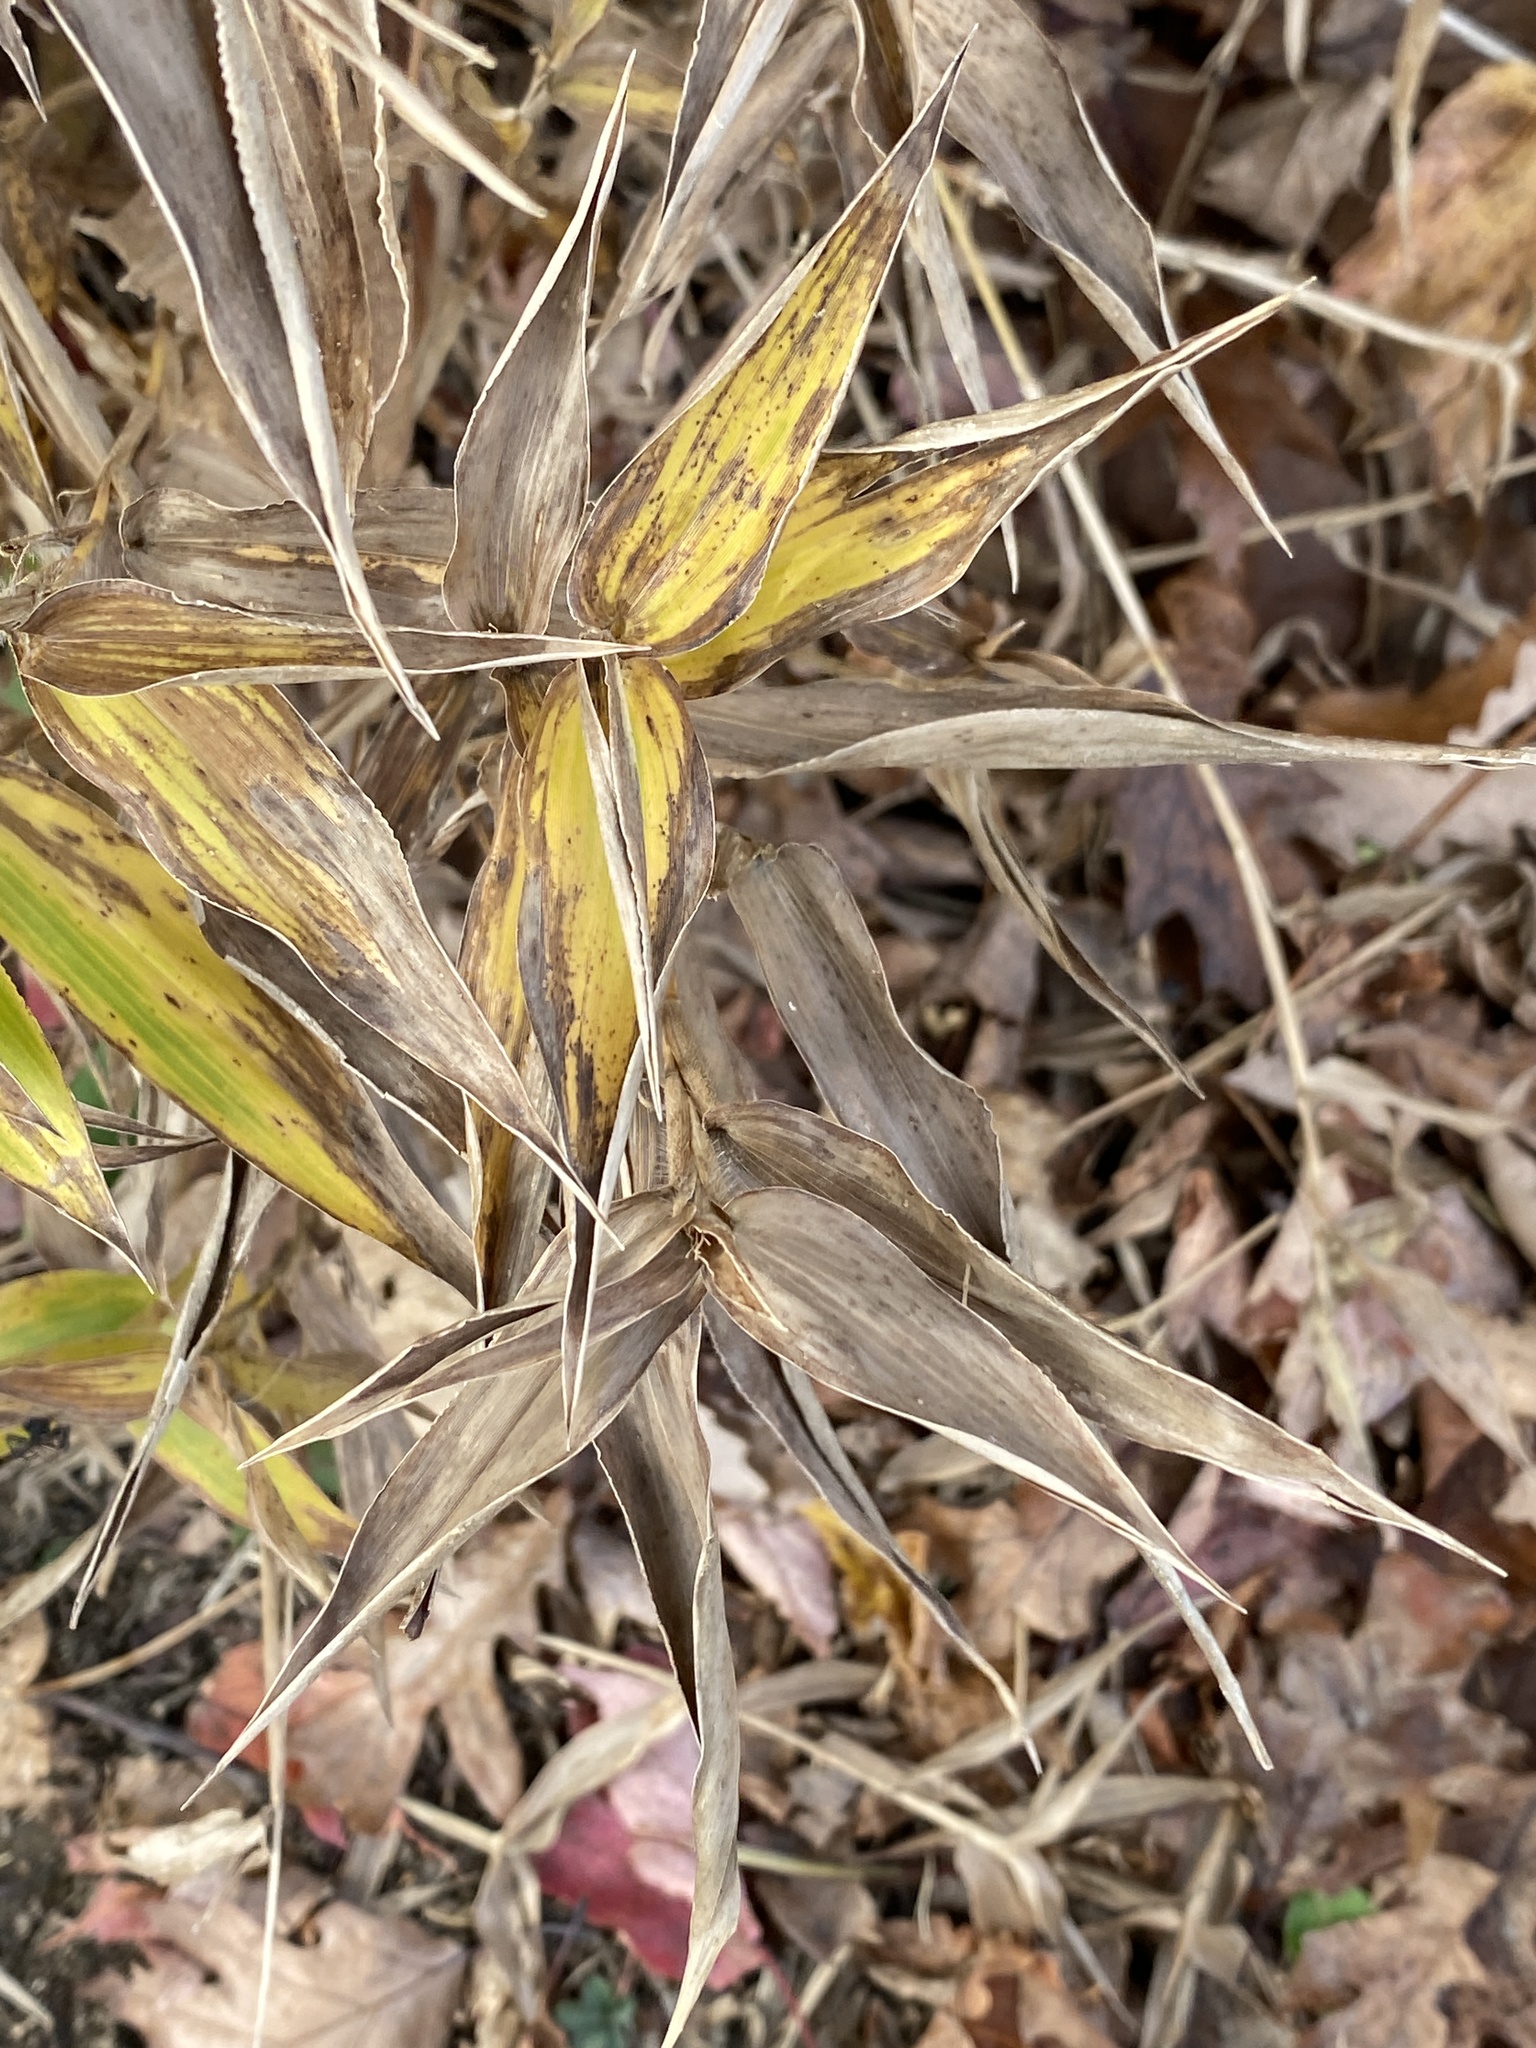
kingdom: Plantae
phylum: Tracheophyta
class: Liliopsida
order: Poales
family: Poaceae
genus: Dichanthelium
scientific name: Dichanthelium clandestinum
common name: Deer-tongue grass
